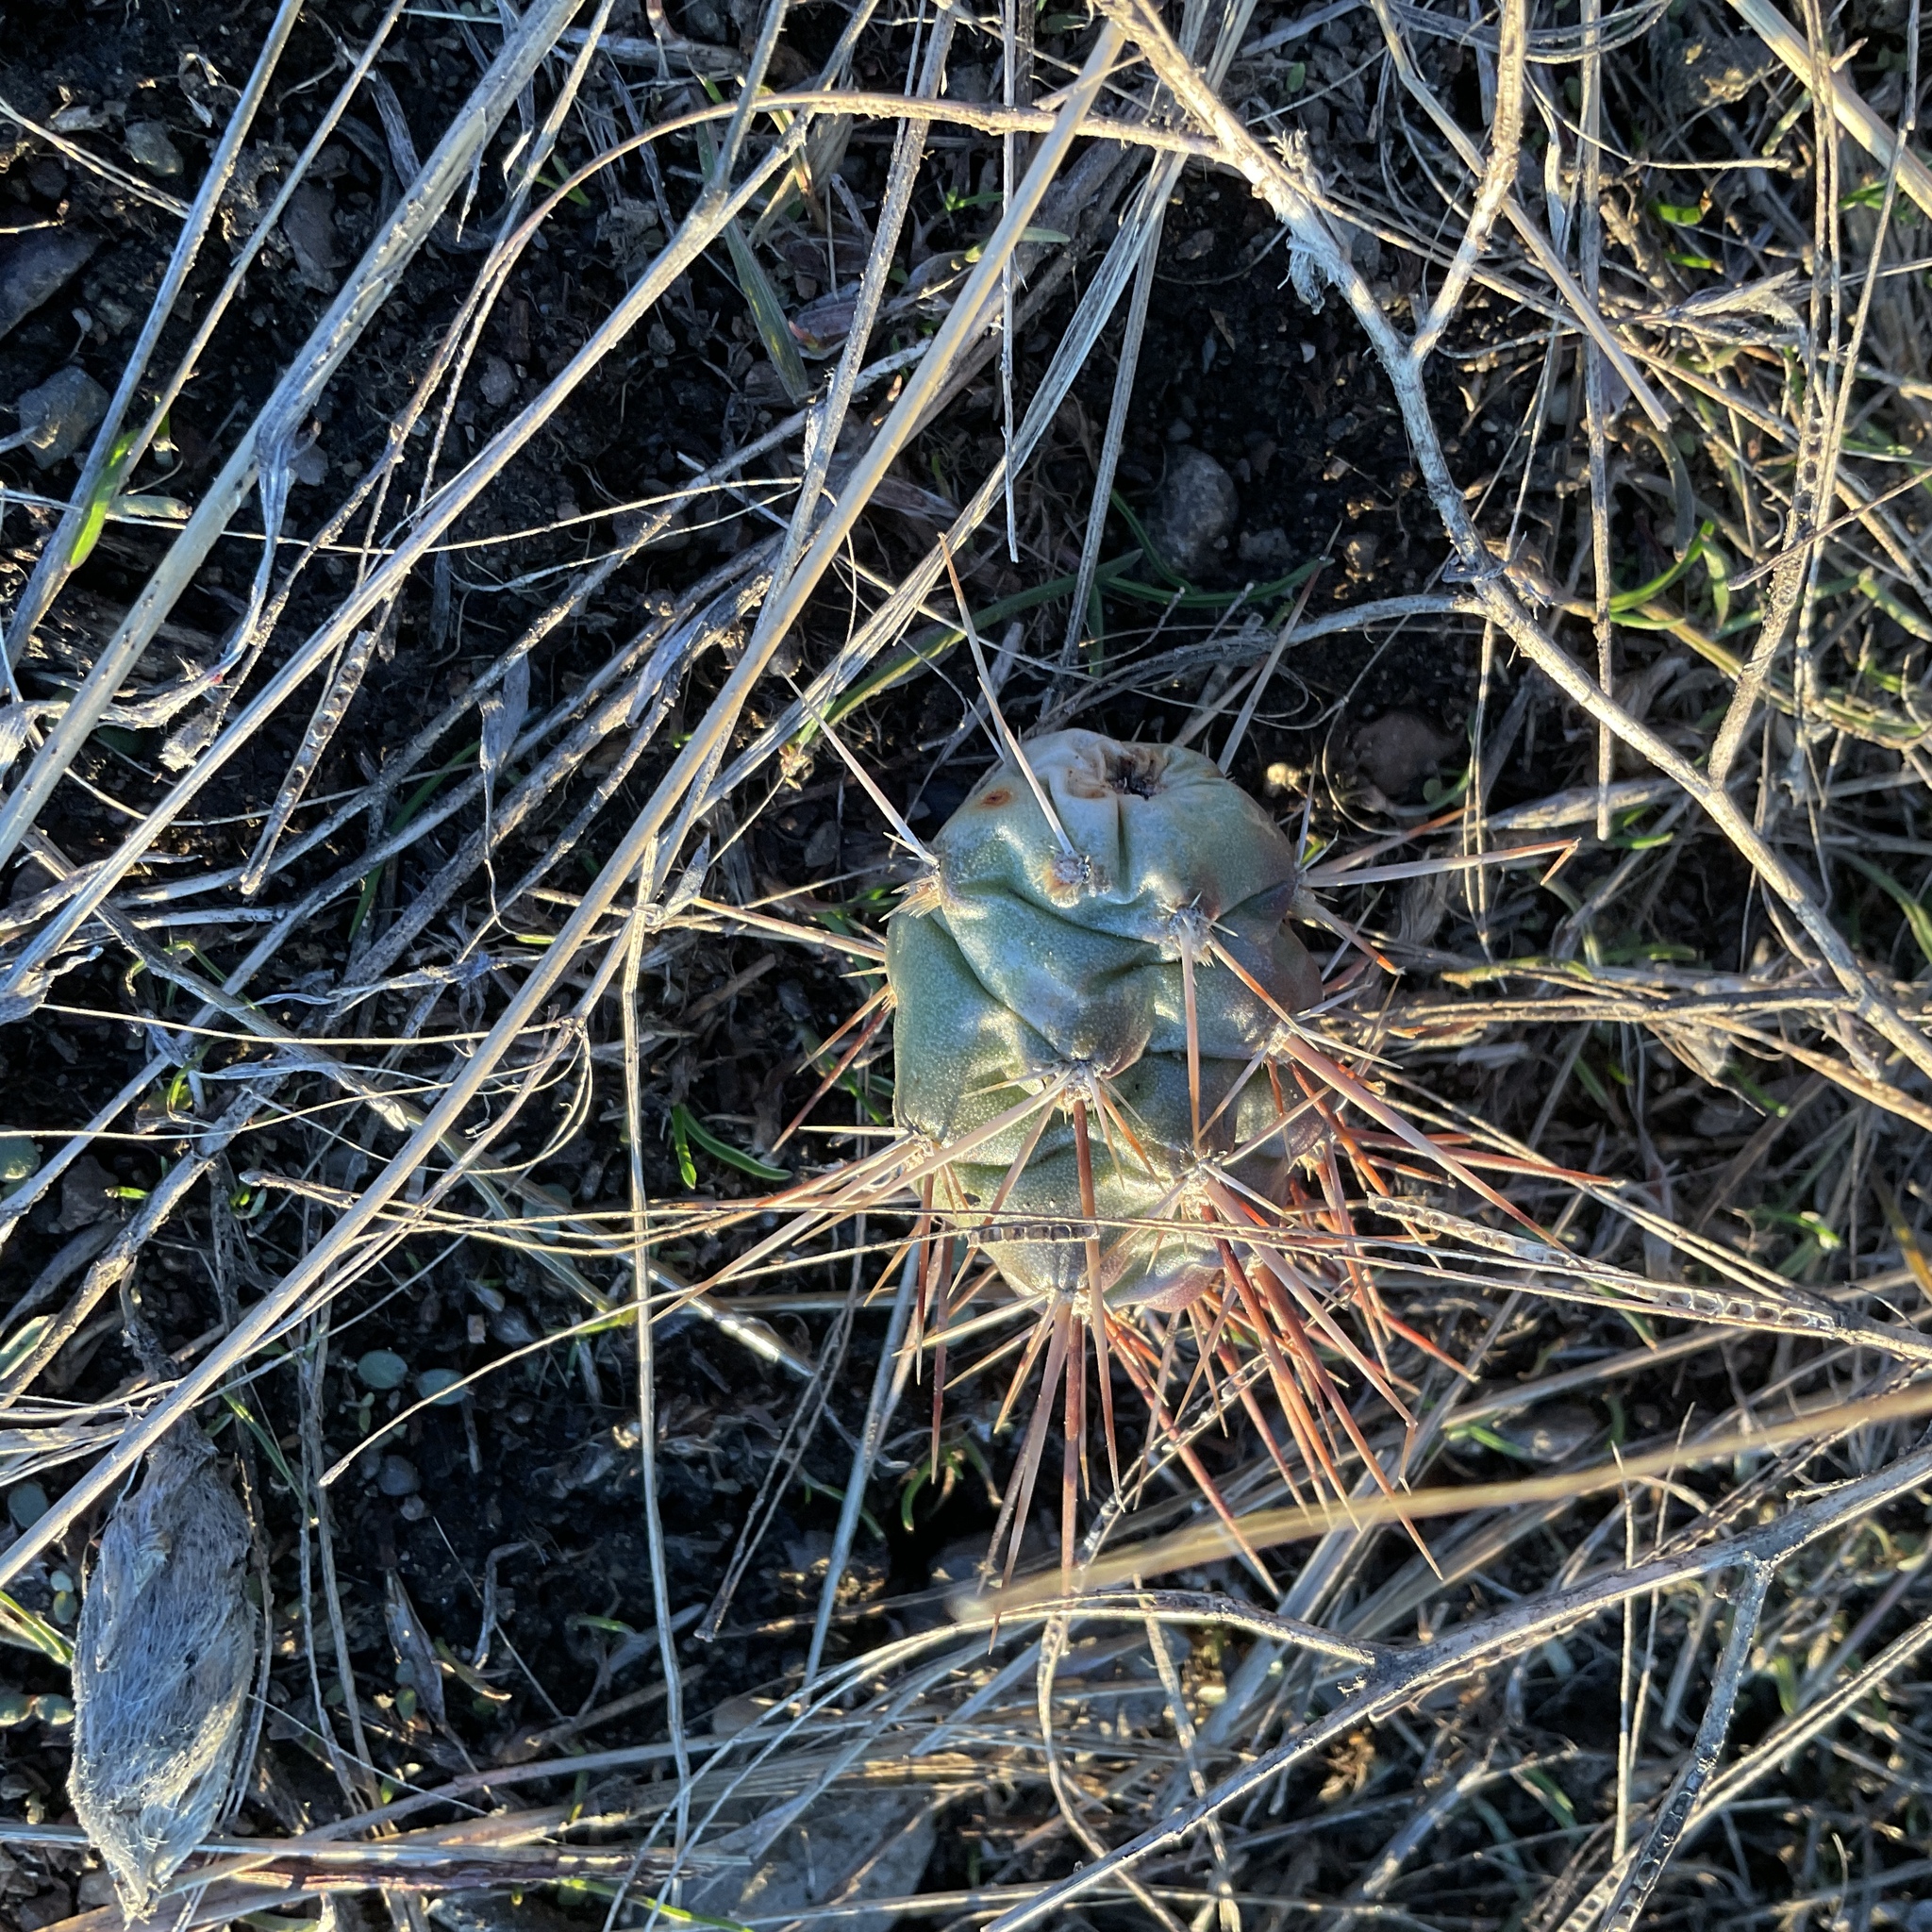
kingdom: Plantae
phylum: Tracheophyta
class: Magnoliopsida
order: Caryophyllales
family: Cactaceae
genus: Opuntia
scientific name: Opuntia fragilis
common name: Brittle cactus
